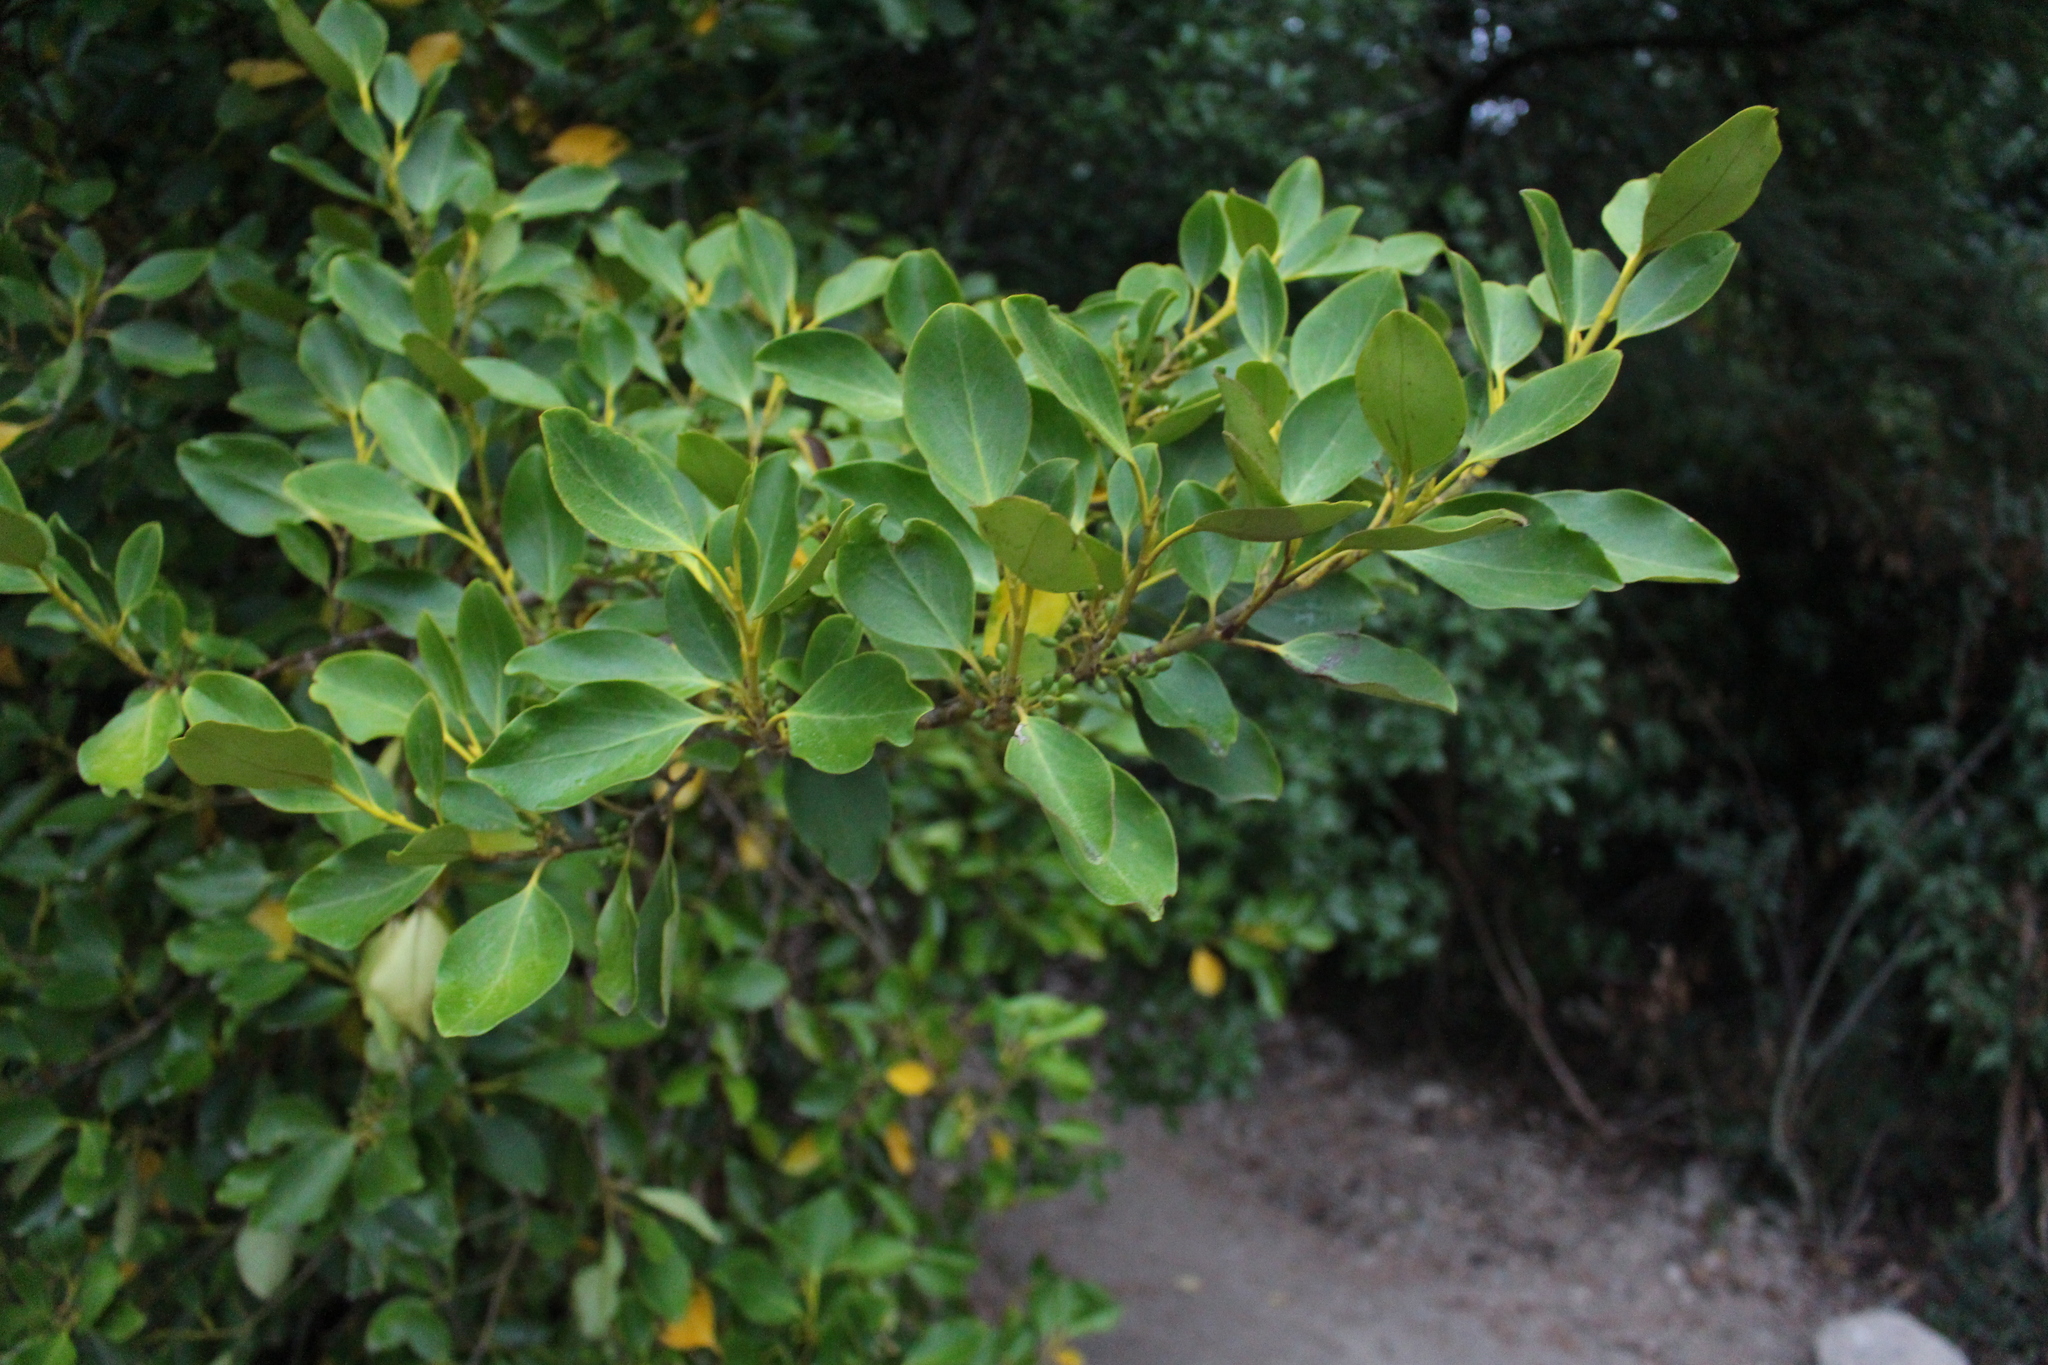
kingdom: Plantae
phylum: Tracheophyta
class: Magnoliopsida
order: Apiales
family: Griseliniaceae
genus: Griselinia
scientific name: Griselinia littoralis
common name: New zealand broadleaf
